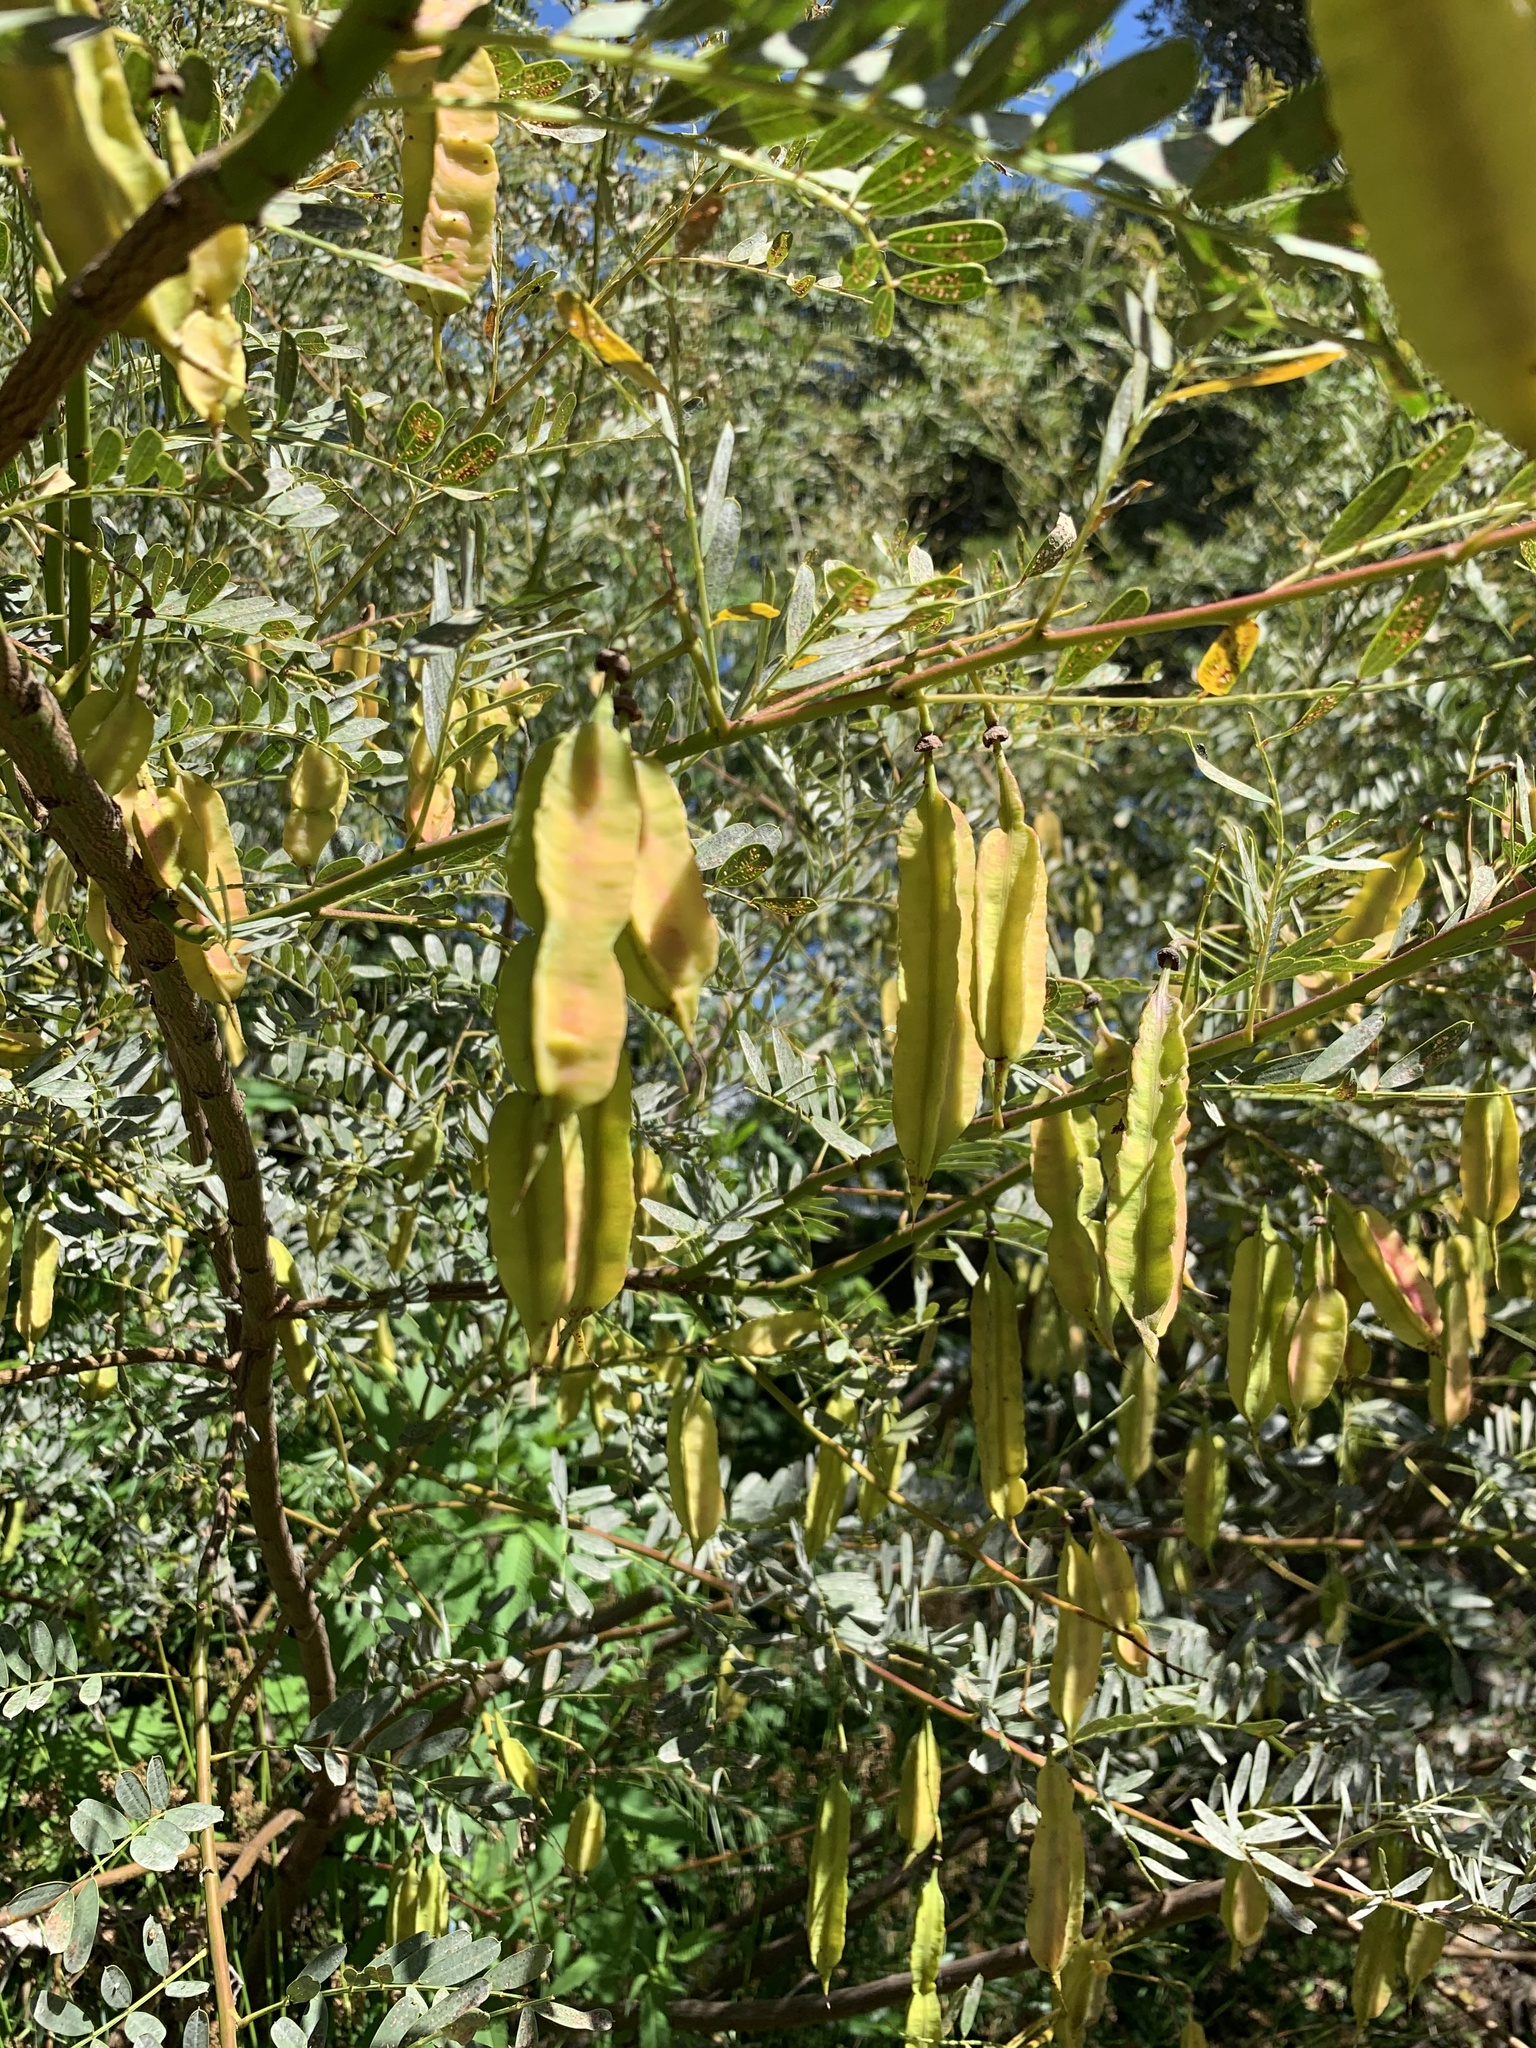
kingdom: Plantae
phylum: Tracheophyta
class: Magnoliopsida
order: Fabales
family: Fabaceae
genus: Sesbania
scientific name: Sesbania punicea
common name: Rattlebox
